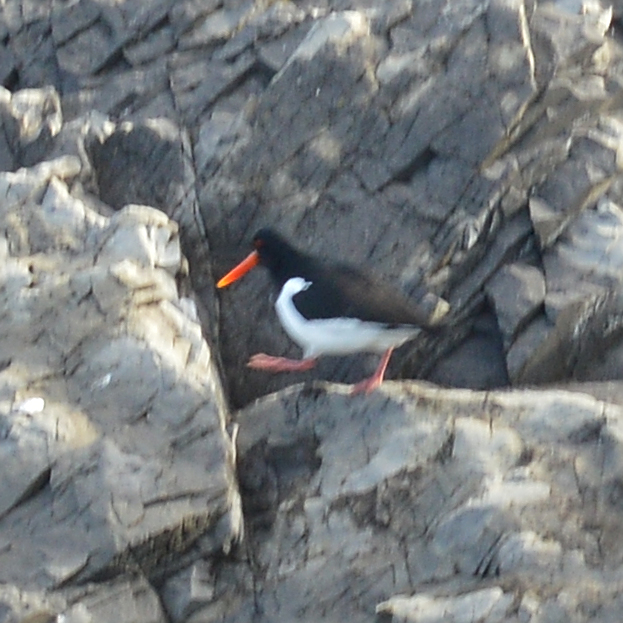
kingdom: Animalia
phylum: Chordata
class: Aves
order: Charadriiformes
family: Haematopodidae
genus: Haematopus
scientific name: Haematopus ostralegus
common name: Eurasian oystercatcher
